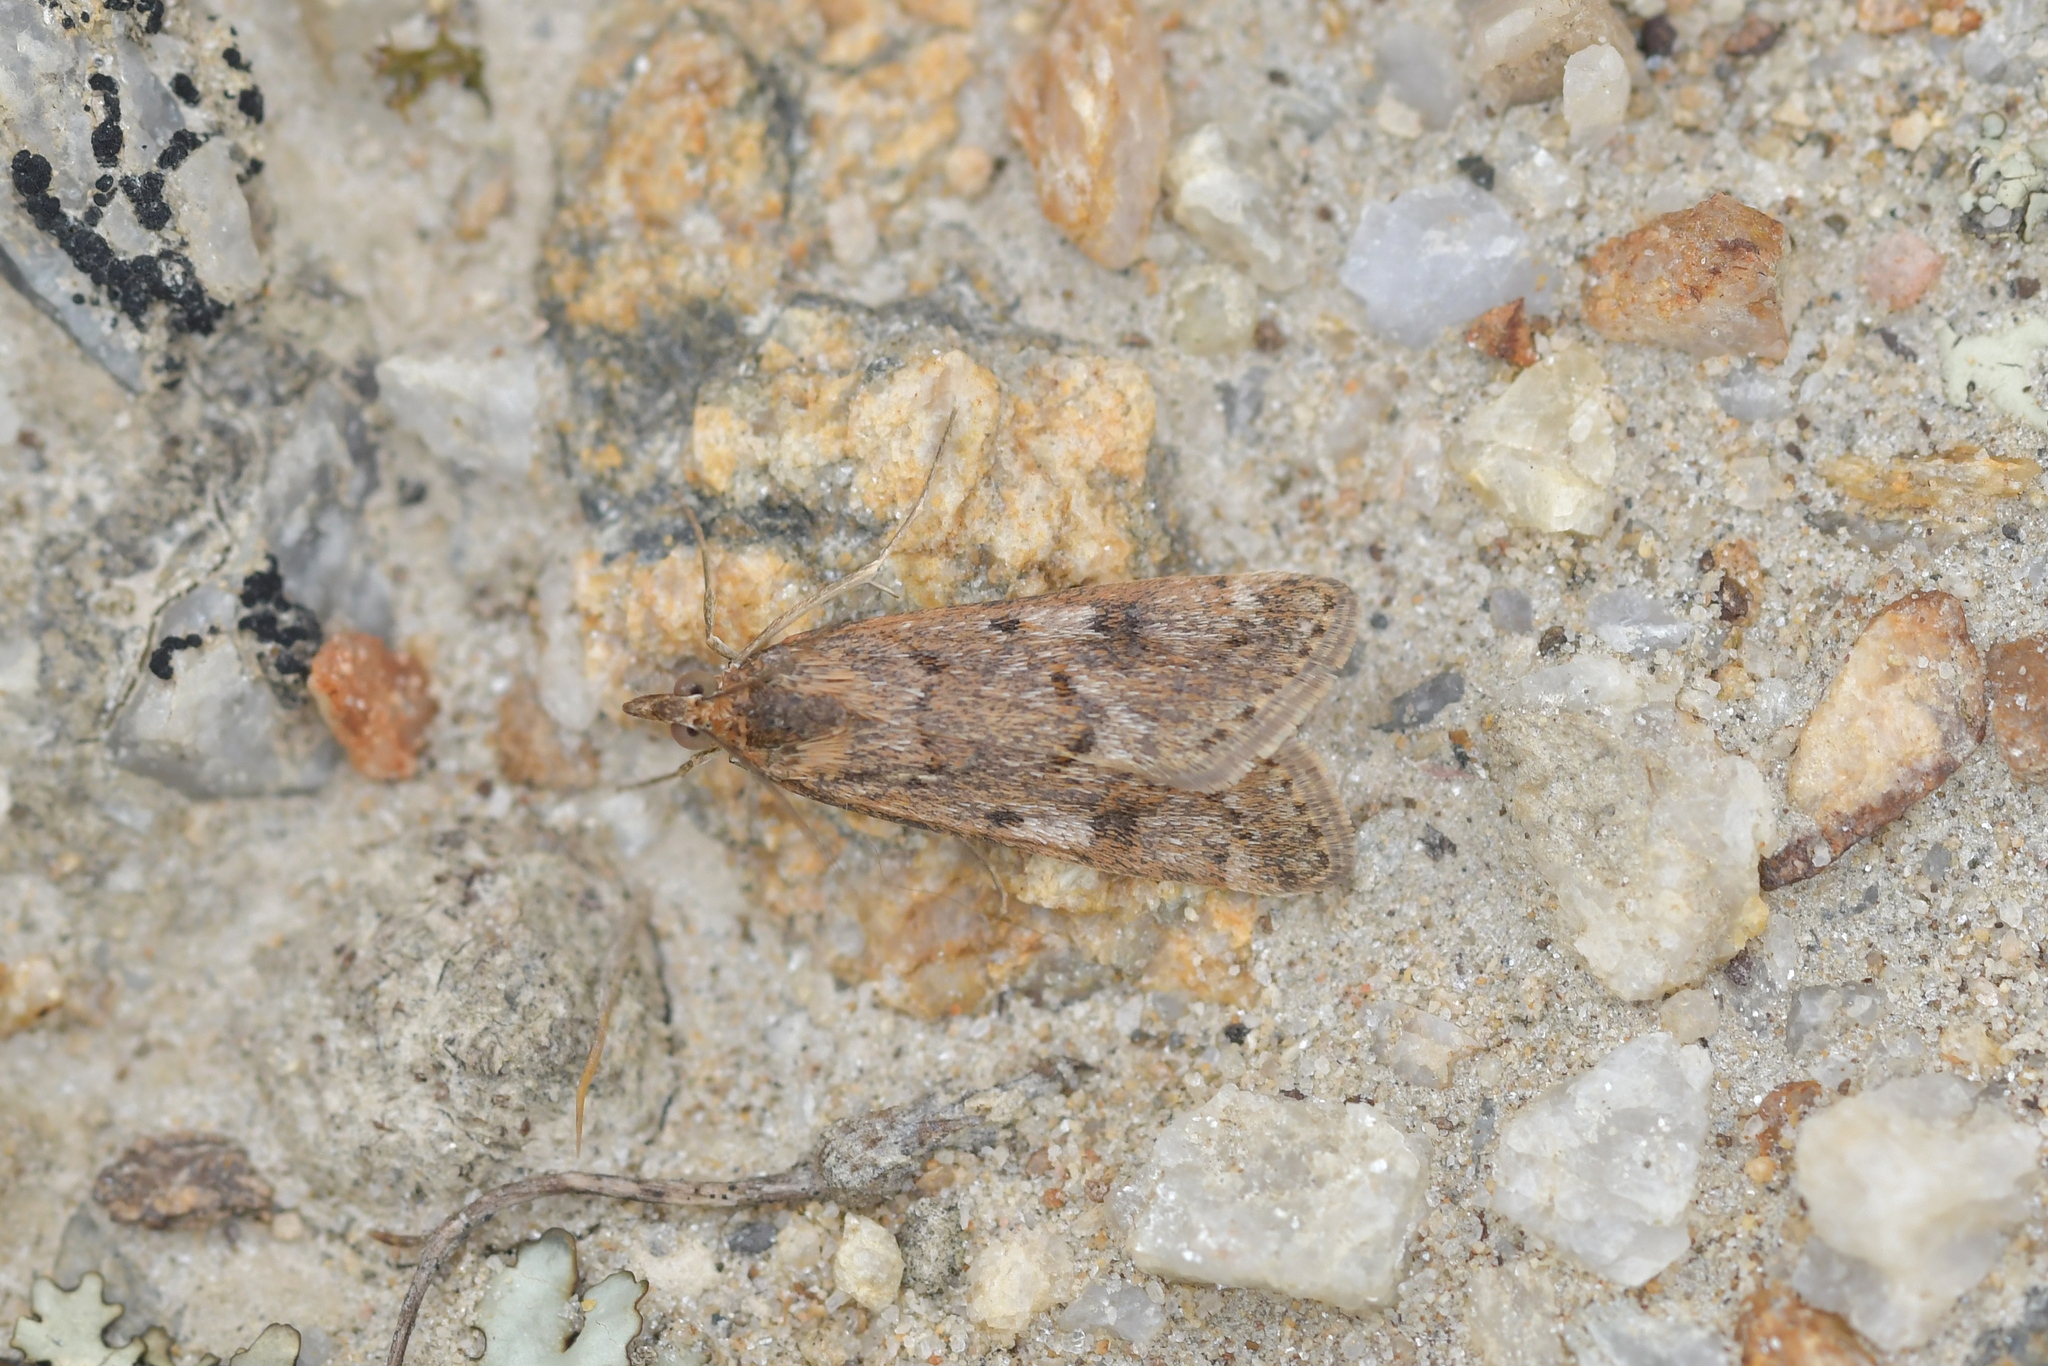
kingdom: Animalia
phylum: Arthropoda
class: Insecta
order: Lepidoptera
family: Crambidae
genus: Achyra
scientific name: Achyra affinitalis
